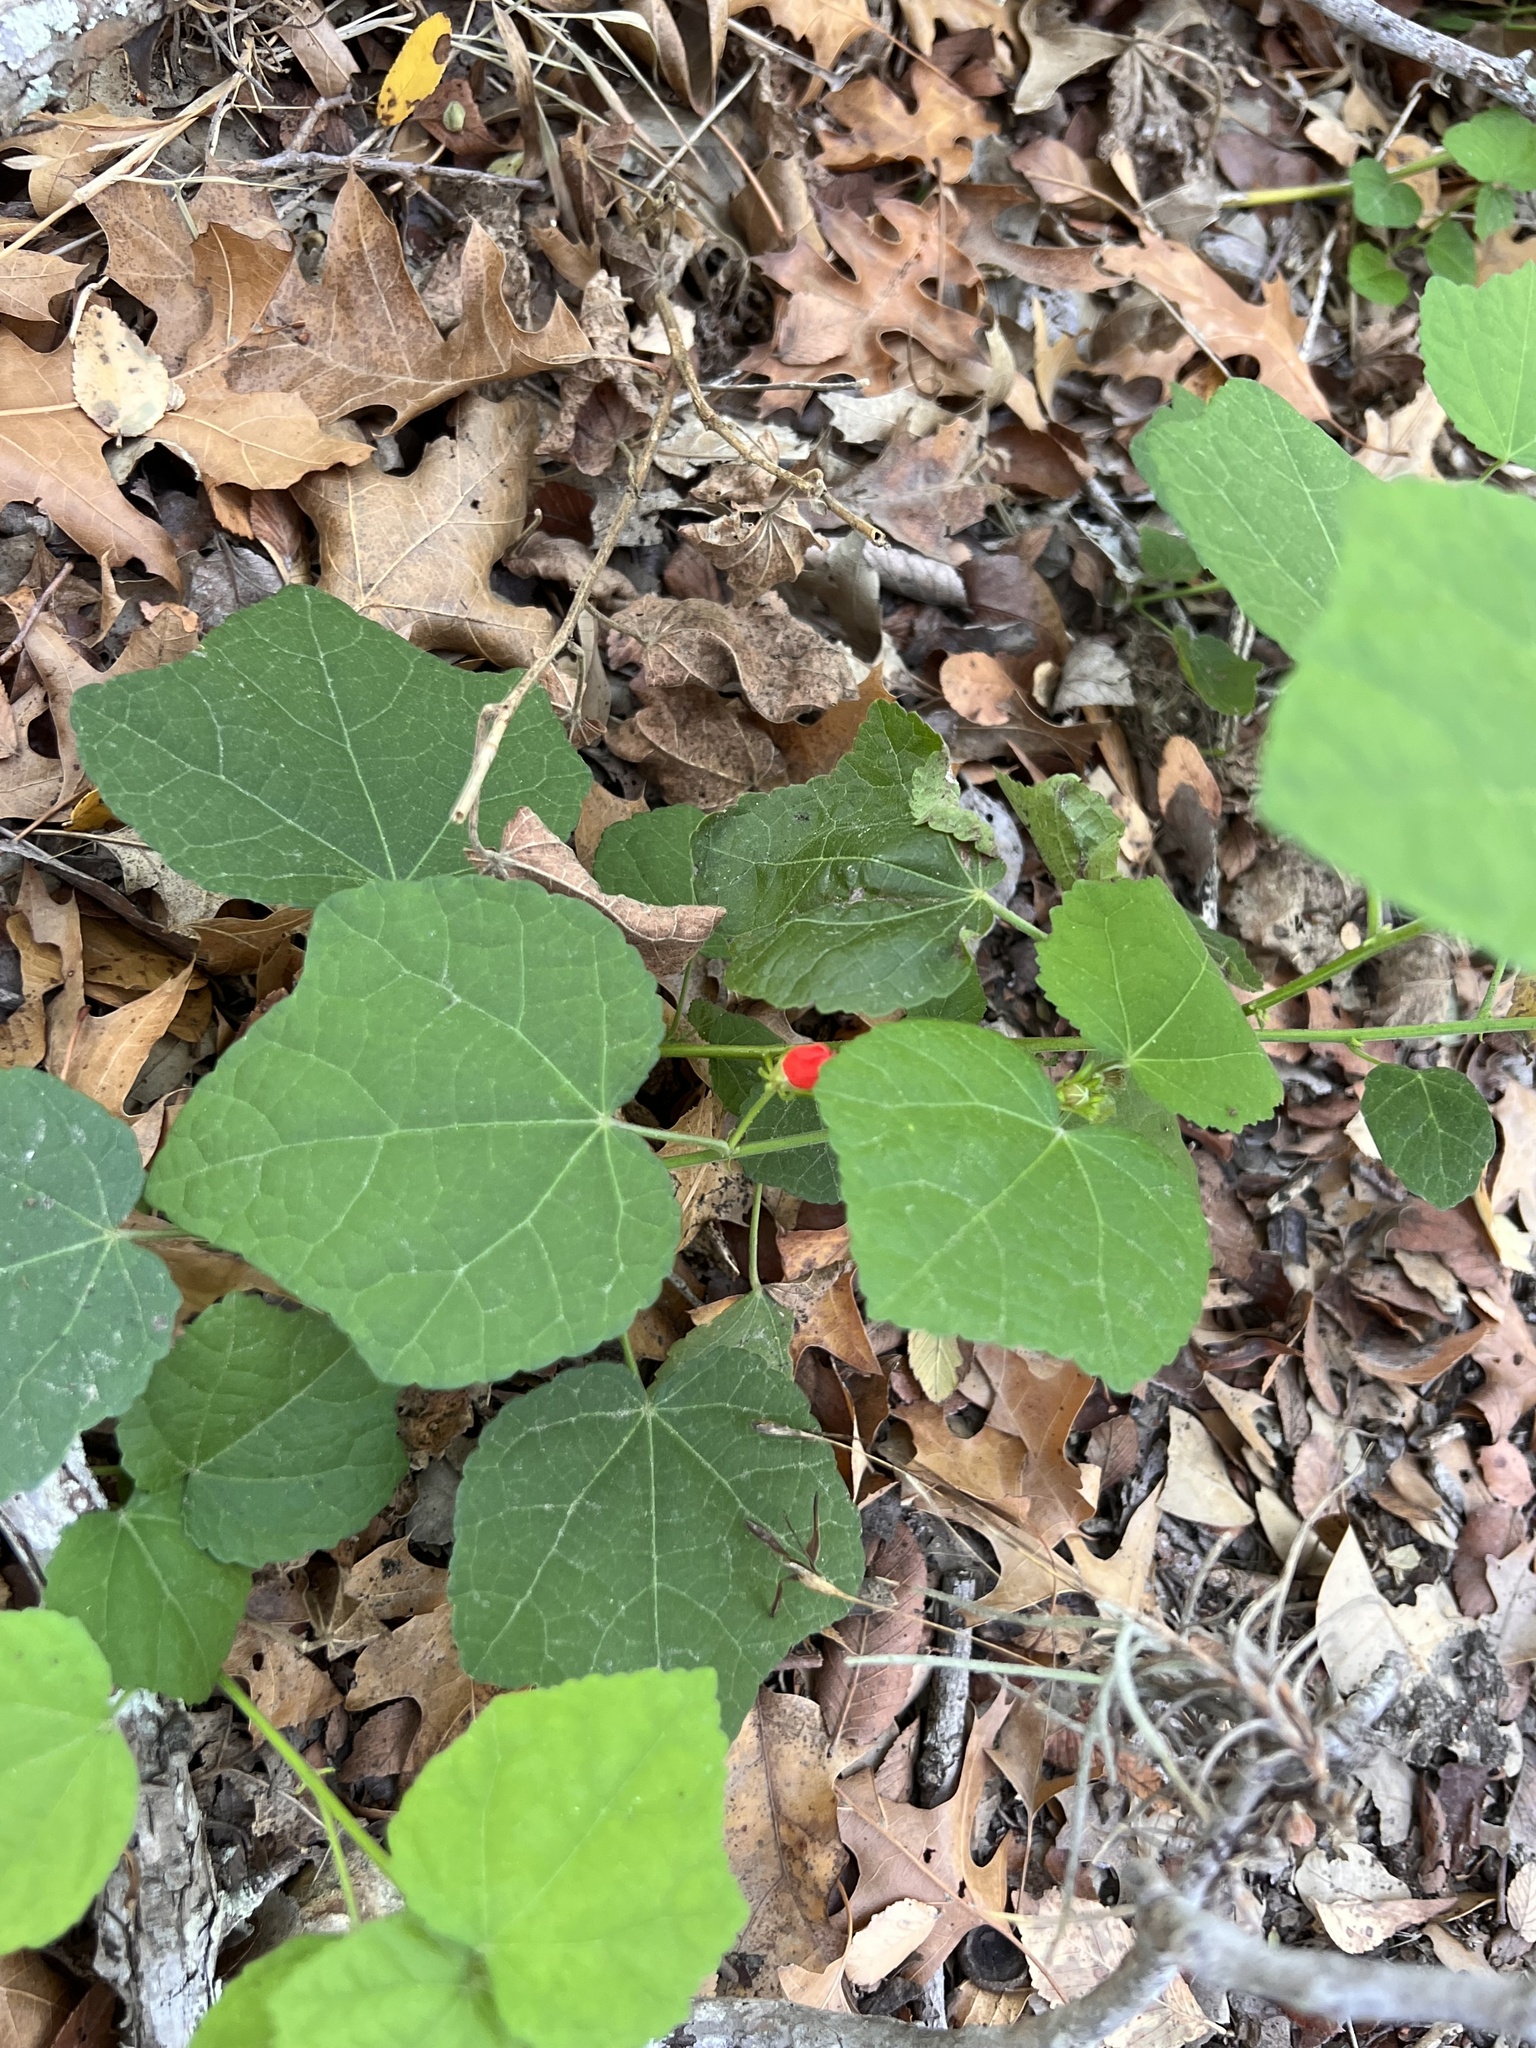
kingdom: Plantae
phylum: Tracheophyta
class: Magnoliopsida
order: Malvales
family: Malvaceae
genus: Malvaviscus
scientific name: Malvaviscus arboreus
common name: Wax mallow
